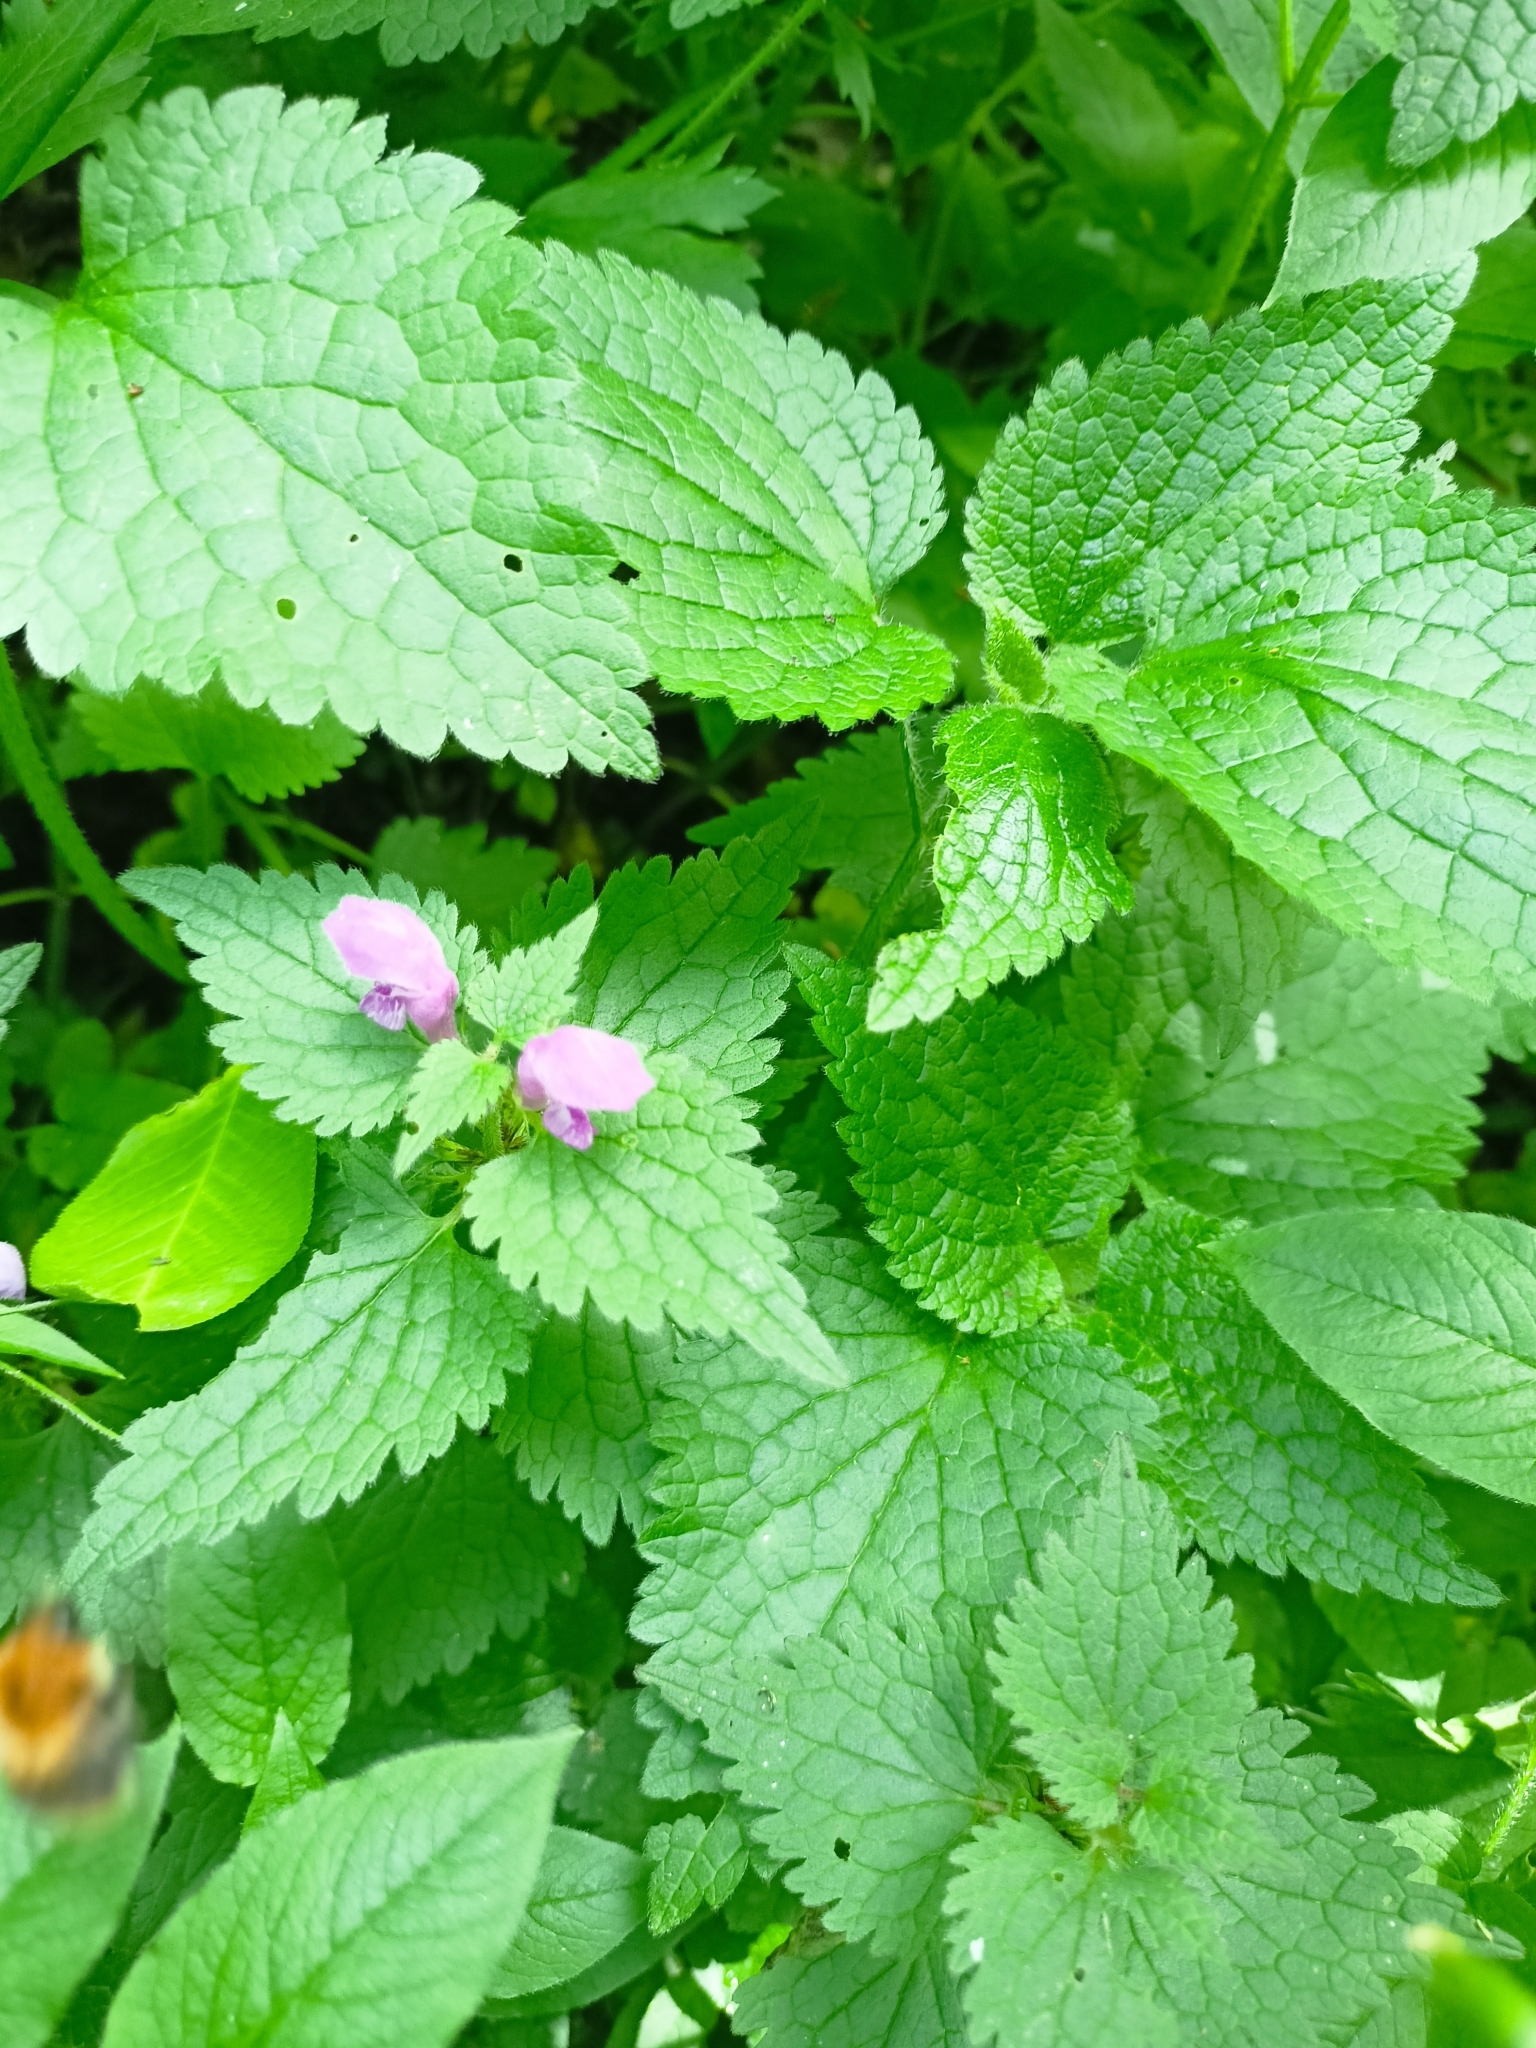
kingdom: Plantae
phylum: Tracheophyta
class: Magnoliopsida
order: Lamiales
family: Lamiaceae
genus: Lamium
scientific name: Lamium maculatum
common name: Spotted dead-nettle
